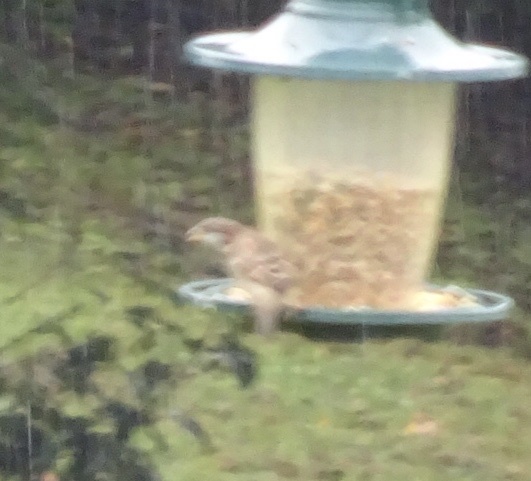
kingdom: Animalia
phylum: Chordata
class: Aves
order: Passeriformes
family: Passeridae
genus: Passer
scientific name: Passer domesticus
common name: House sparrow
